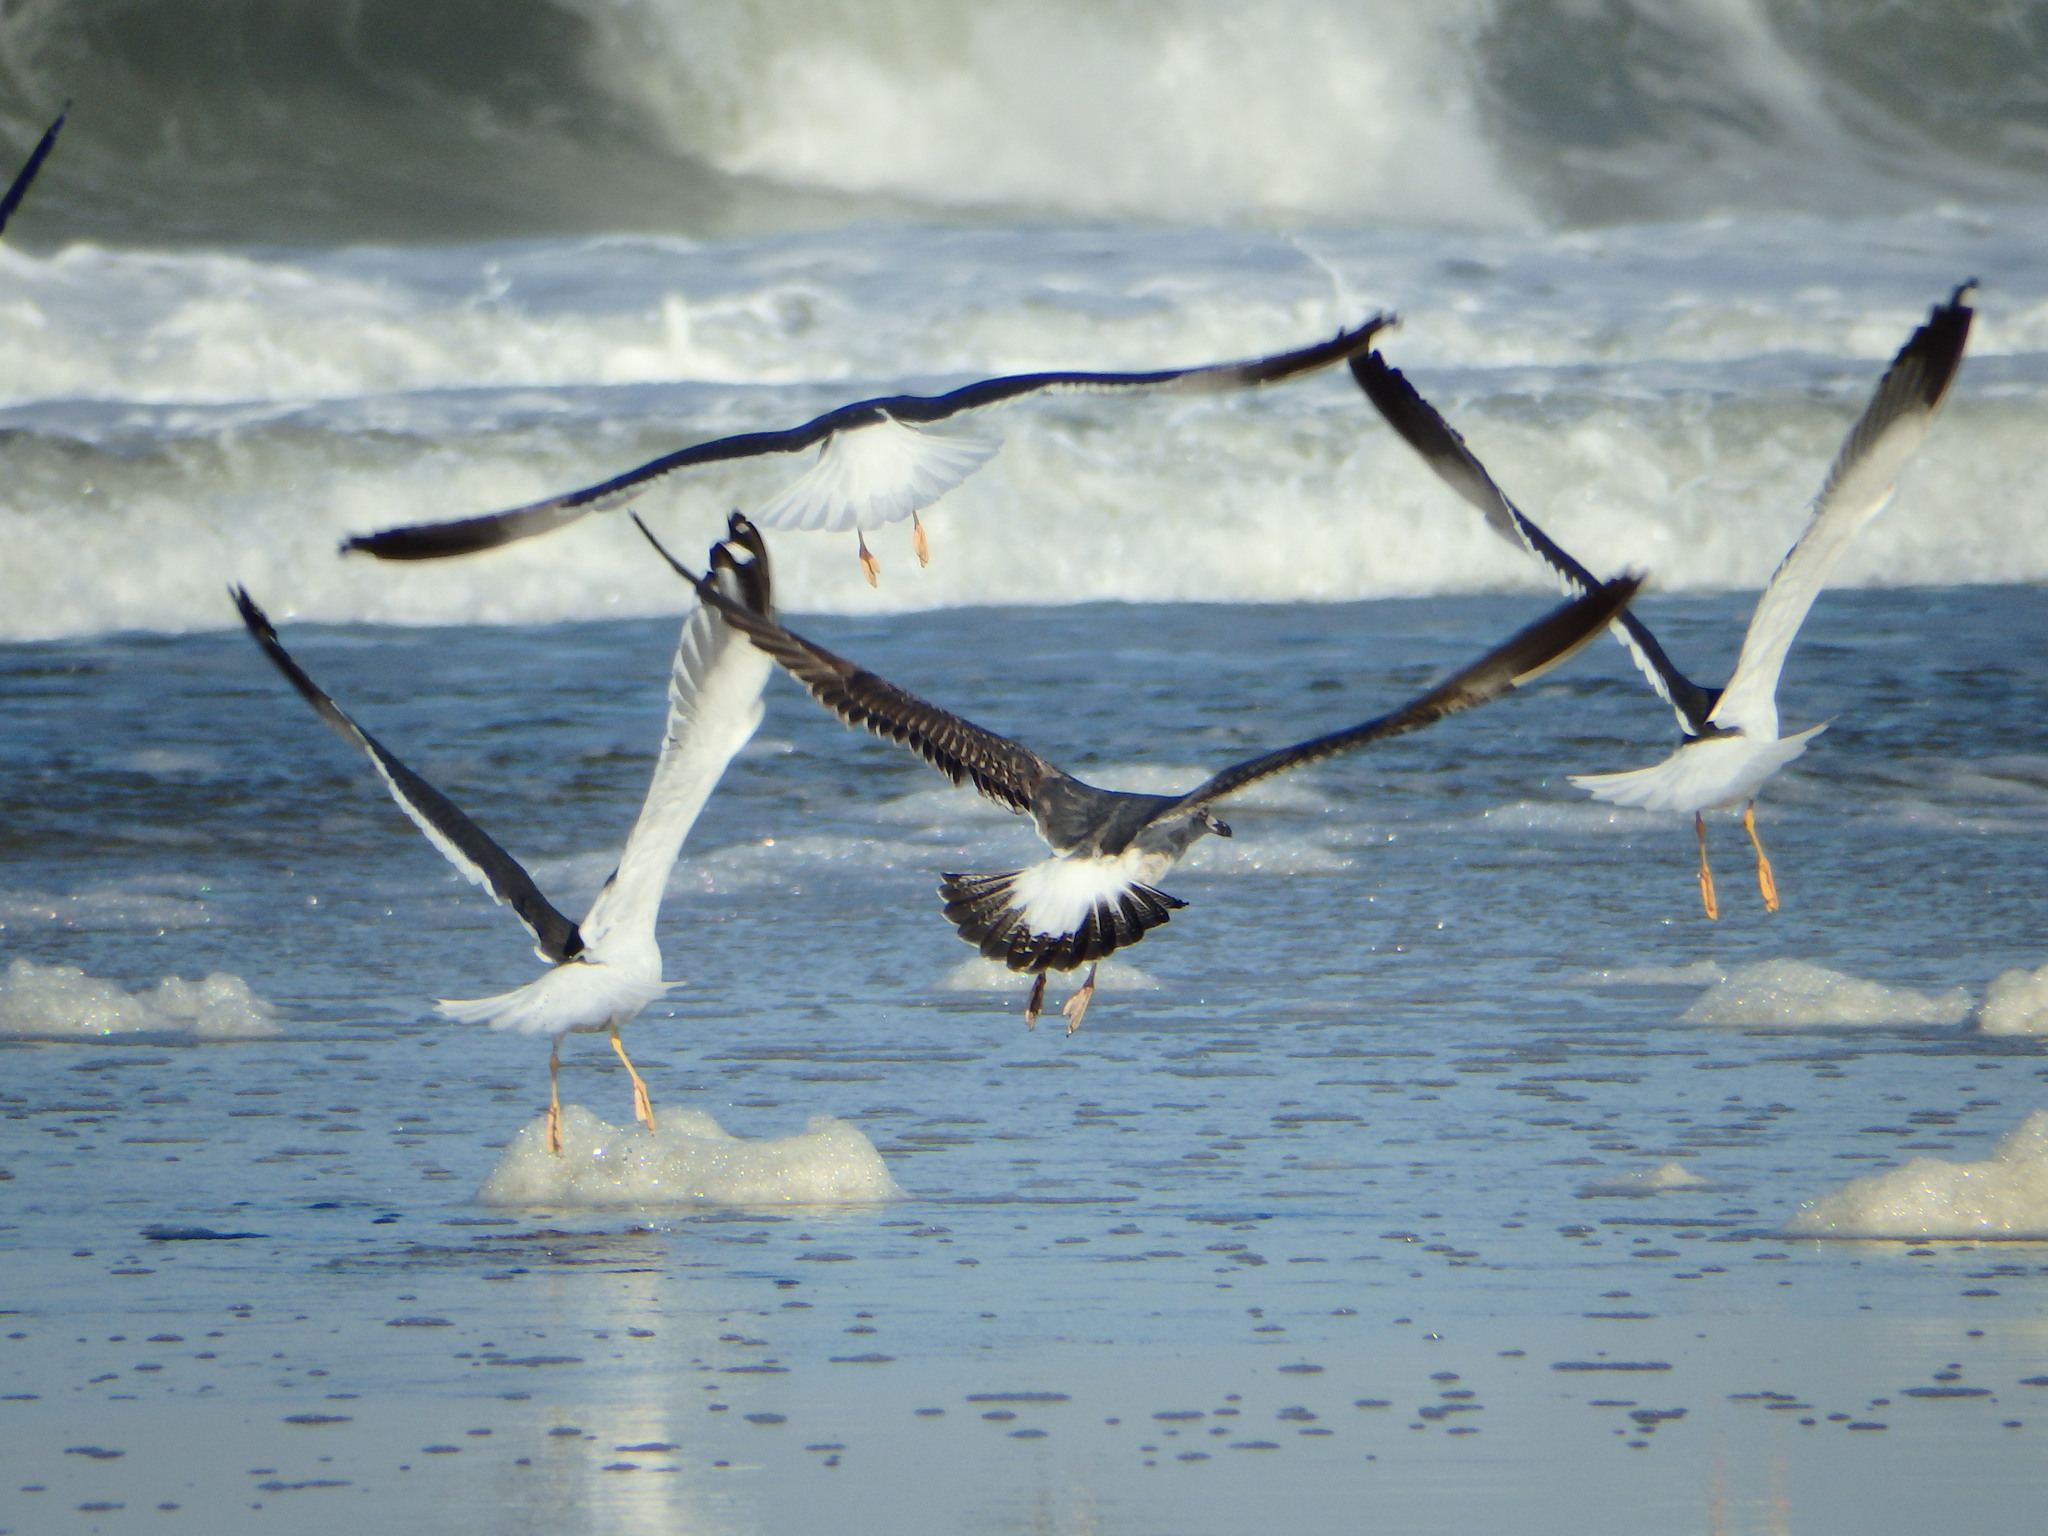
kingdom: Animalia
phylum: Chordata
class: Aves
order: Charadriiformes
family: Laridae
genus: Larus
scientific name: Larus fuscus
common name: Lesser black-backed gull
